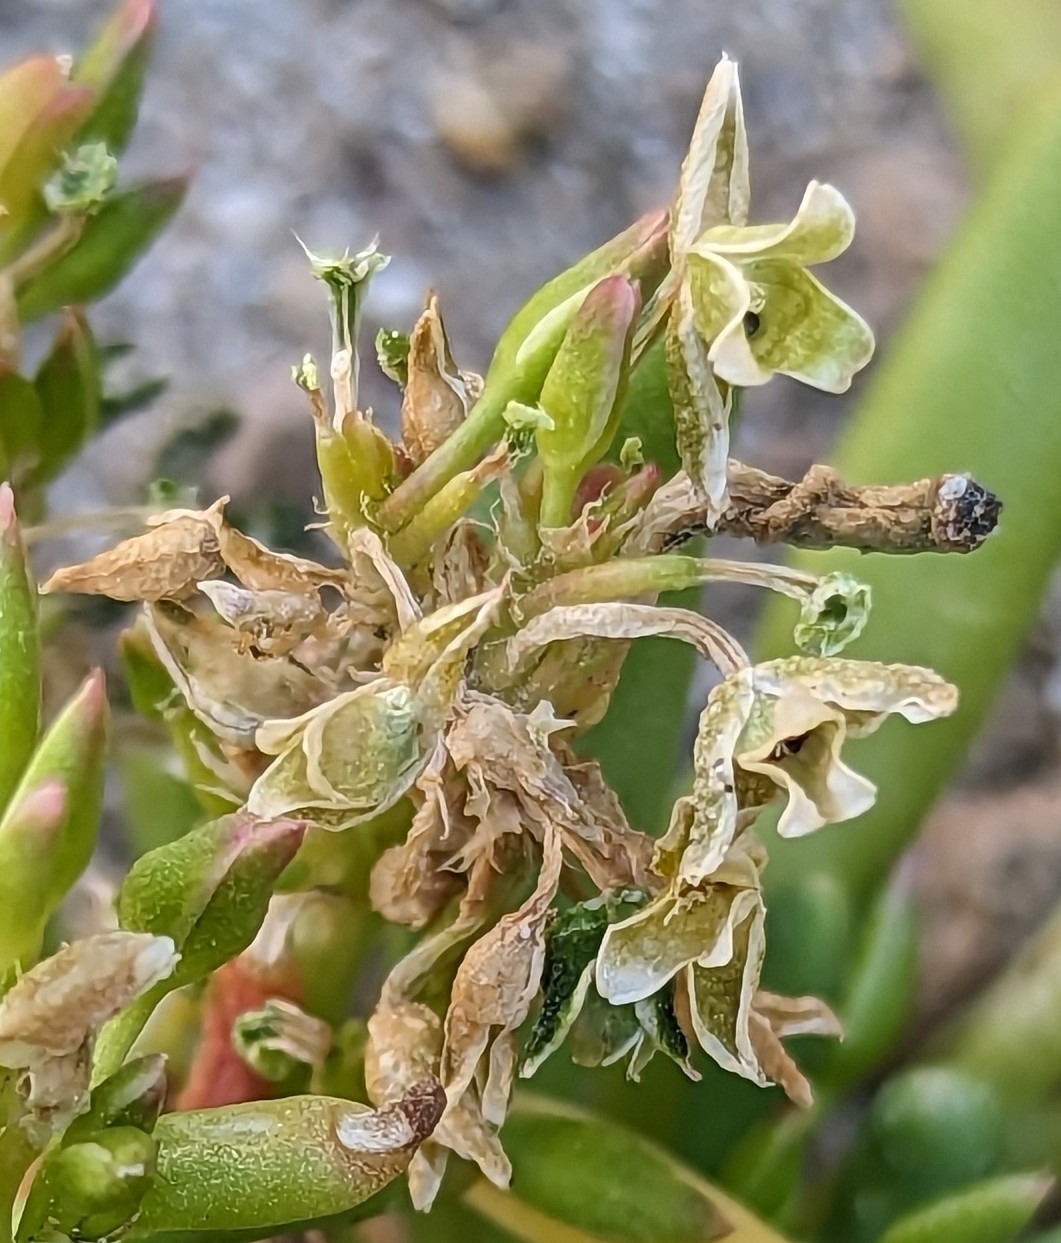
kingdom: Plantae
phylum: Tracheophyta
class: Magnoliopsida
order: Caryophyllales
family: Montiaceae
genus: Thingia
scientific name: Thingia ambigua
